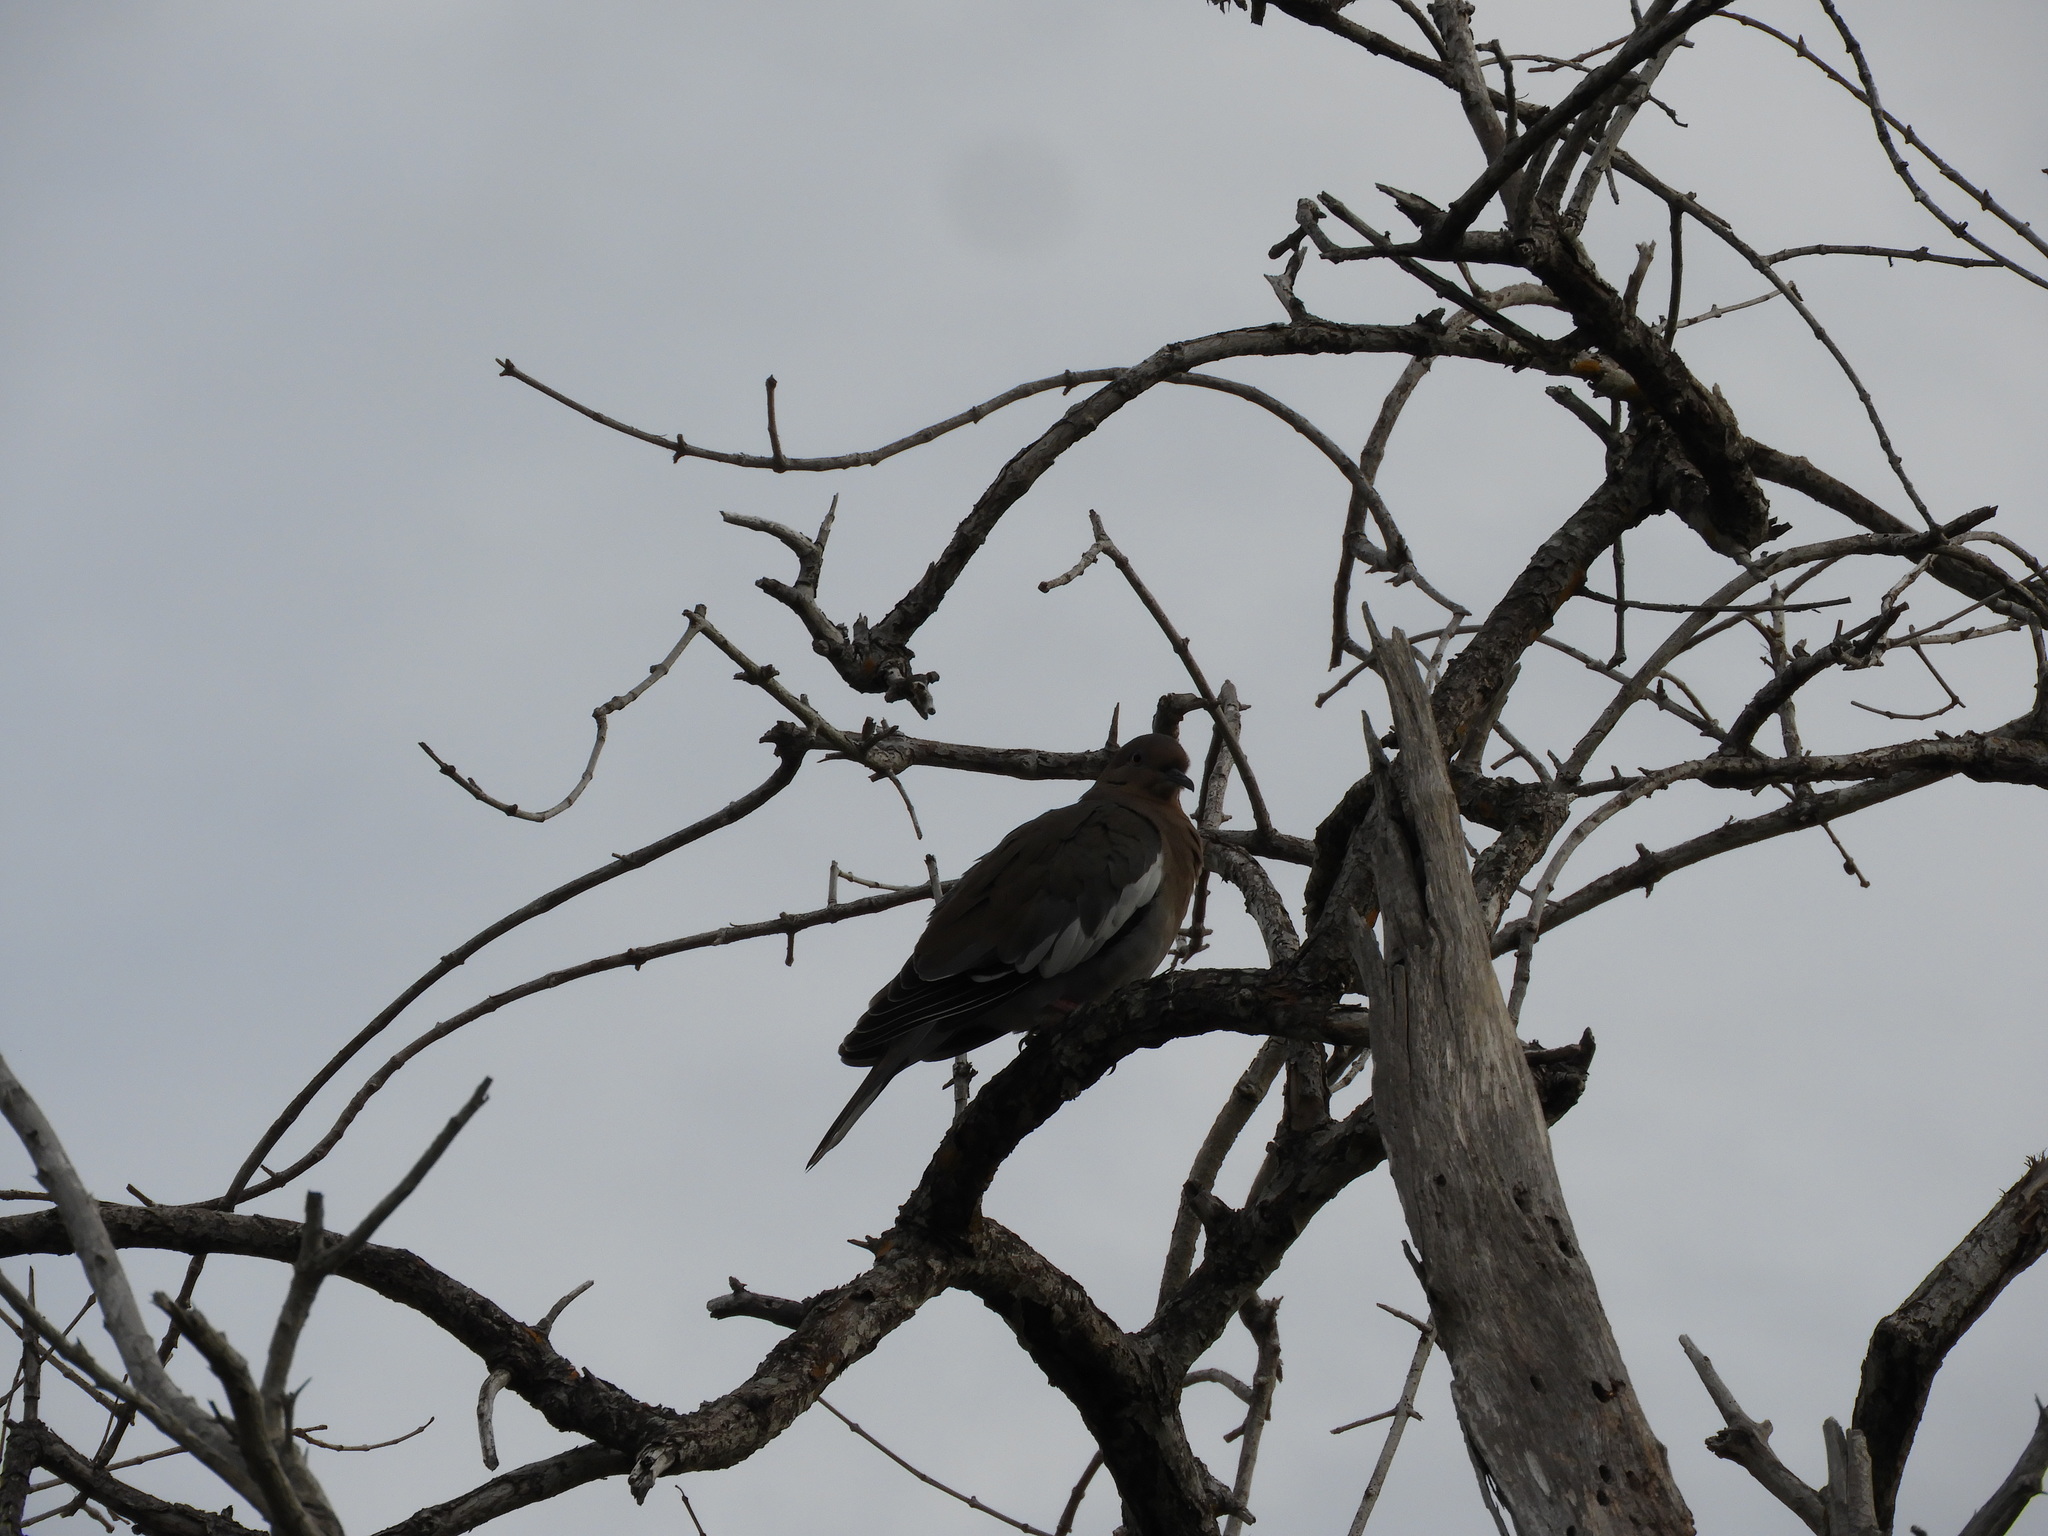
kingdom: Animalia
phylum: Chordata
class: Aves
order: Columbiformes
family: Columbidae
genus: Zenaida
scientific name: Zenaida asiatica
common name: White-winged dove
